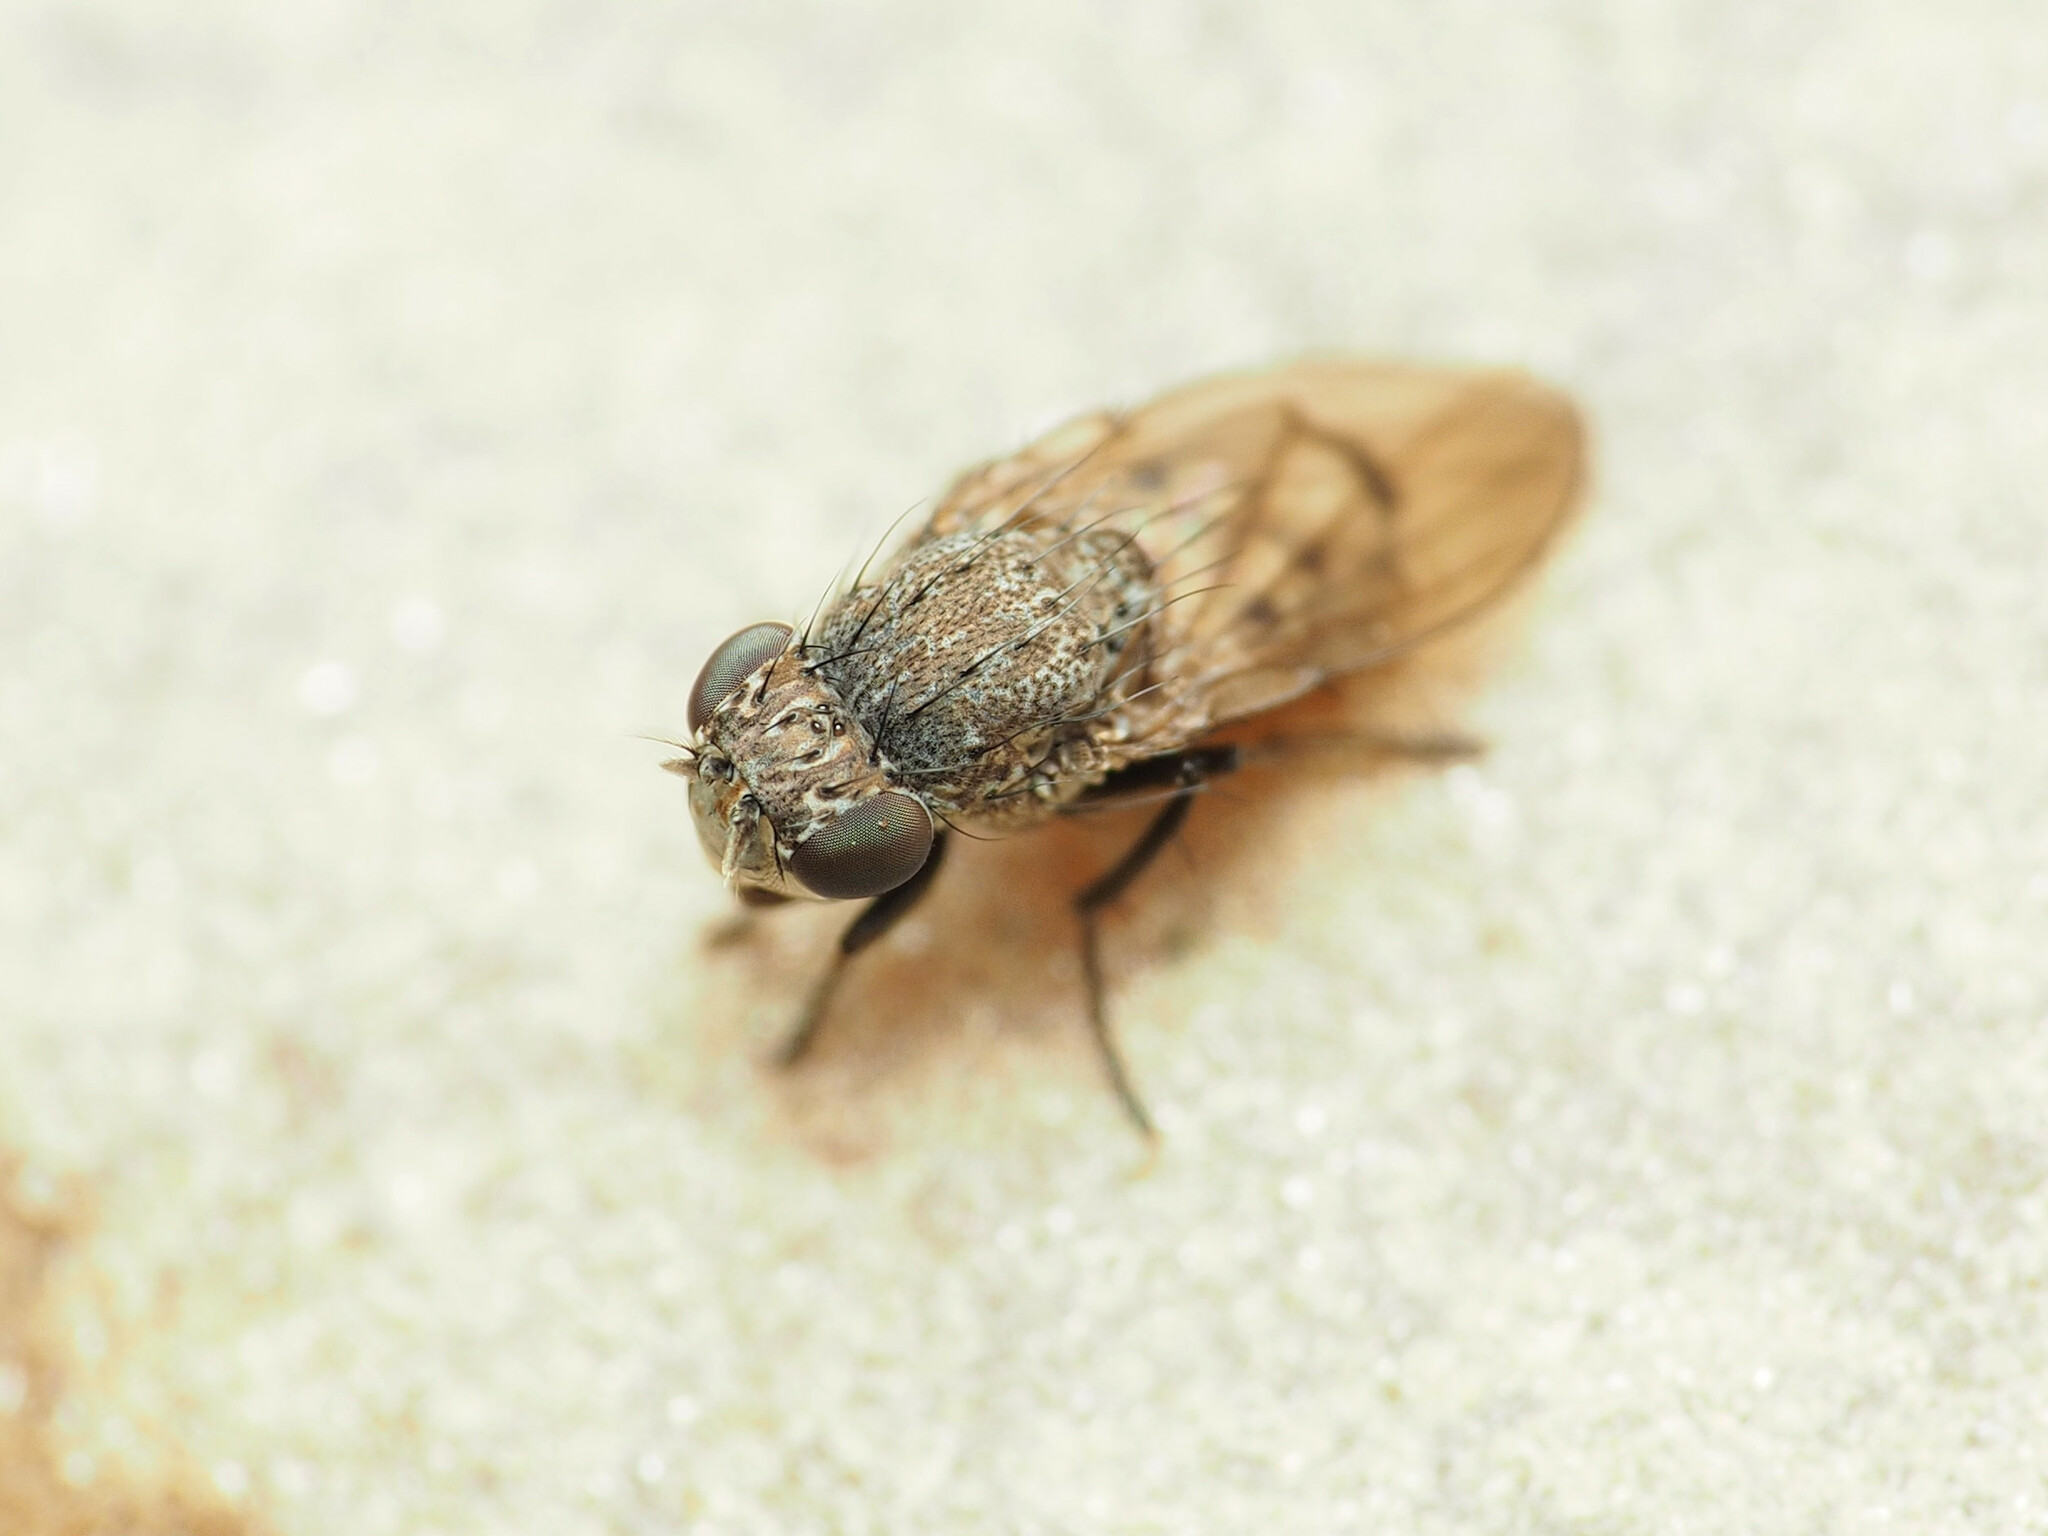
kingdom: Animalia
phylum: Arthropoda
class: Insecta
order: Diptera
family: Ephydridae
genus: Paralimna
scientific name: Paralimna punctipennis
